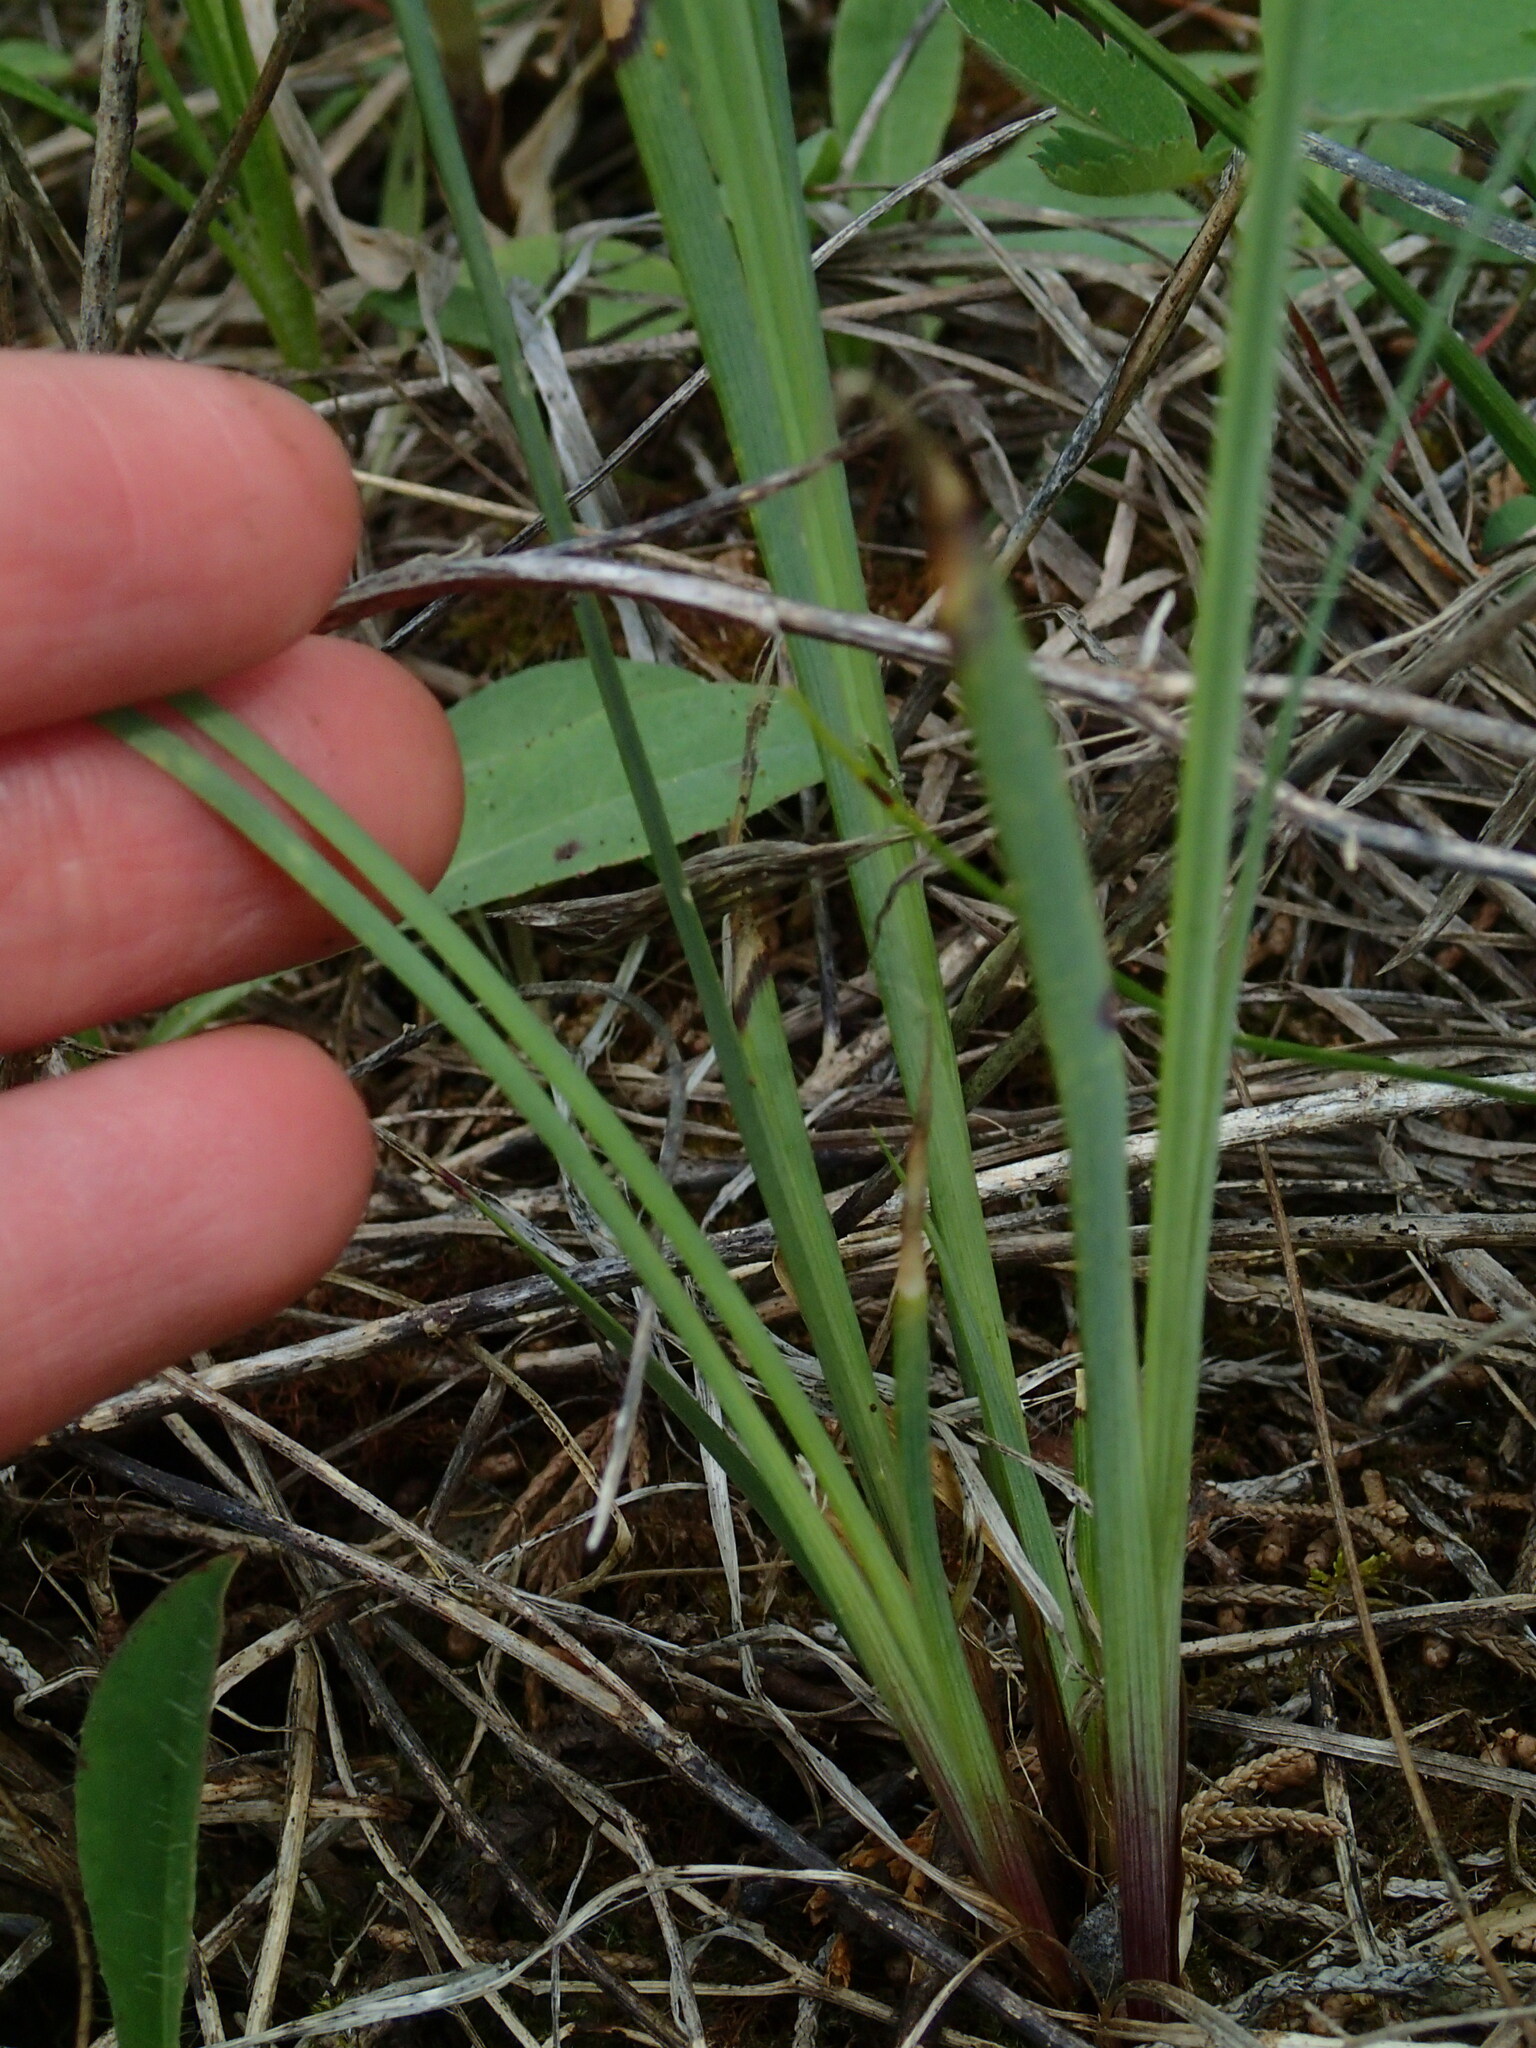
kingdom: Plantae
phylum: Tracheophyta
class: Liliopsida
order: Asparagales
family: Iridaceae
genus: Sisyrinchium
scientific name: Sisyrinchium montanum
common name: American blue-eyed-grass
